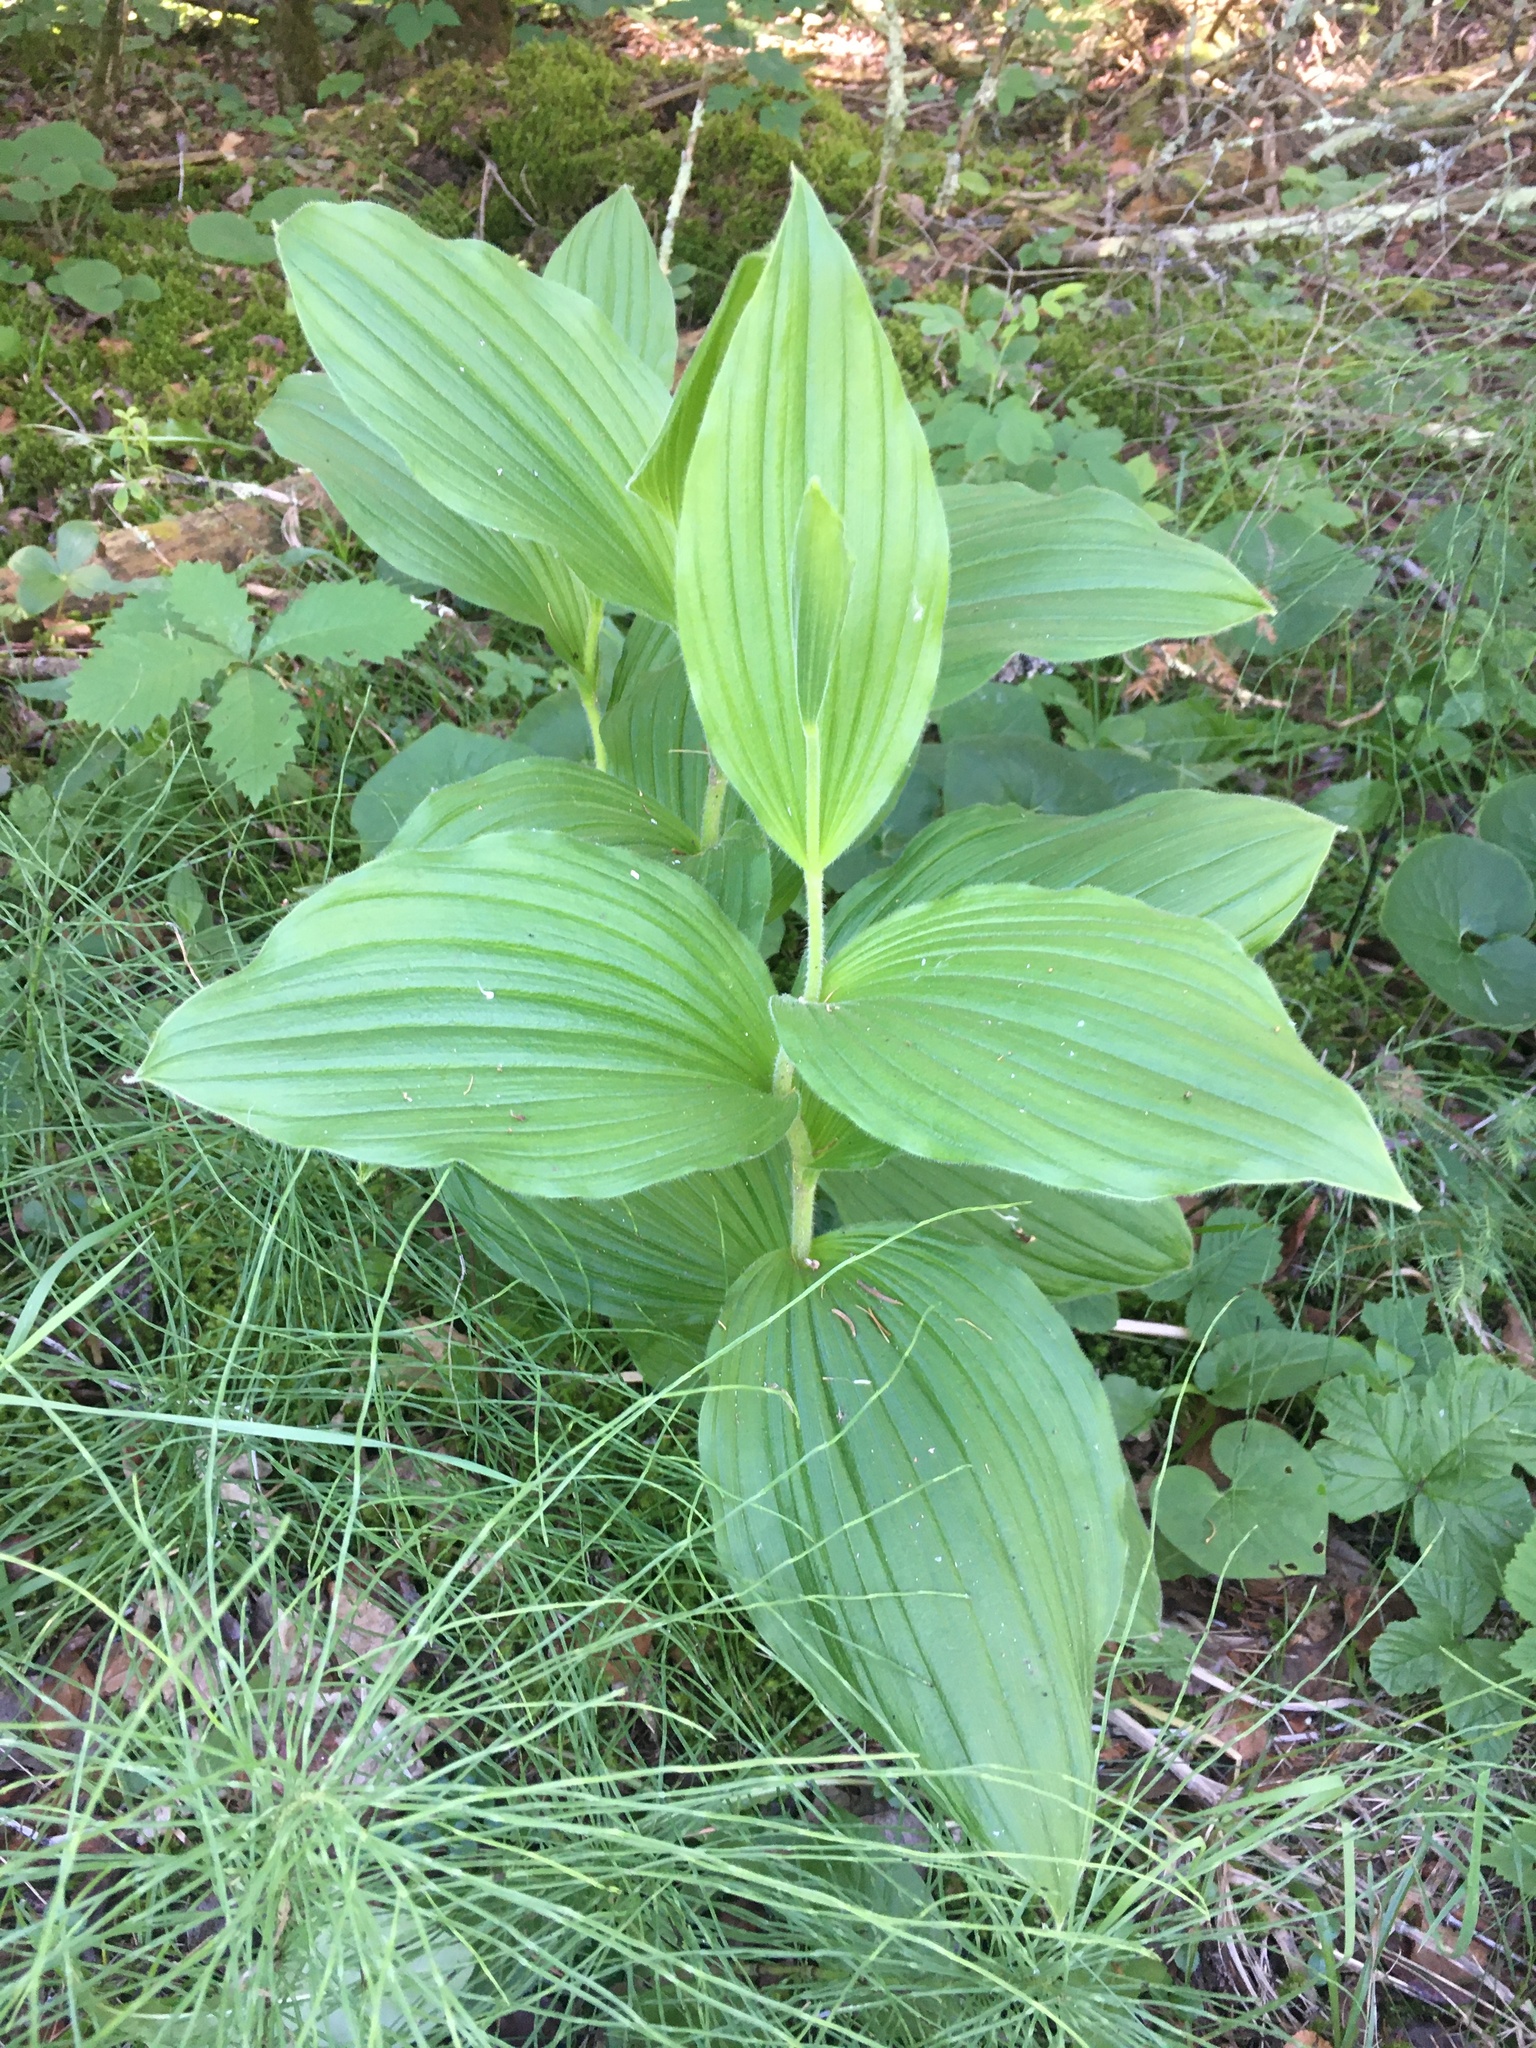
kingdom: Plantae
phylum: Tracheophyta
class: Liliopsida
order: Asparagales
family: Orchidaceae
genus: Cypripedium
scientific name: Cypripedium reginae
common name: Queen lady's-slipper
